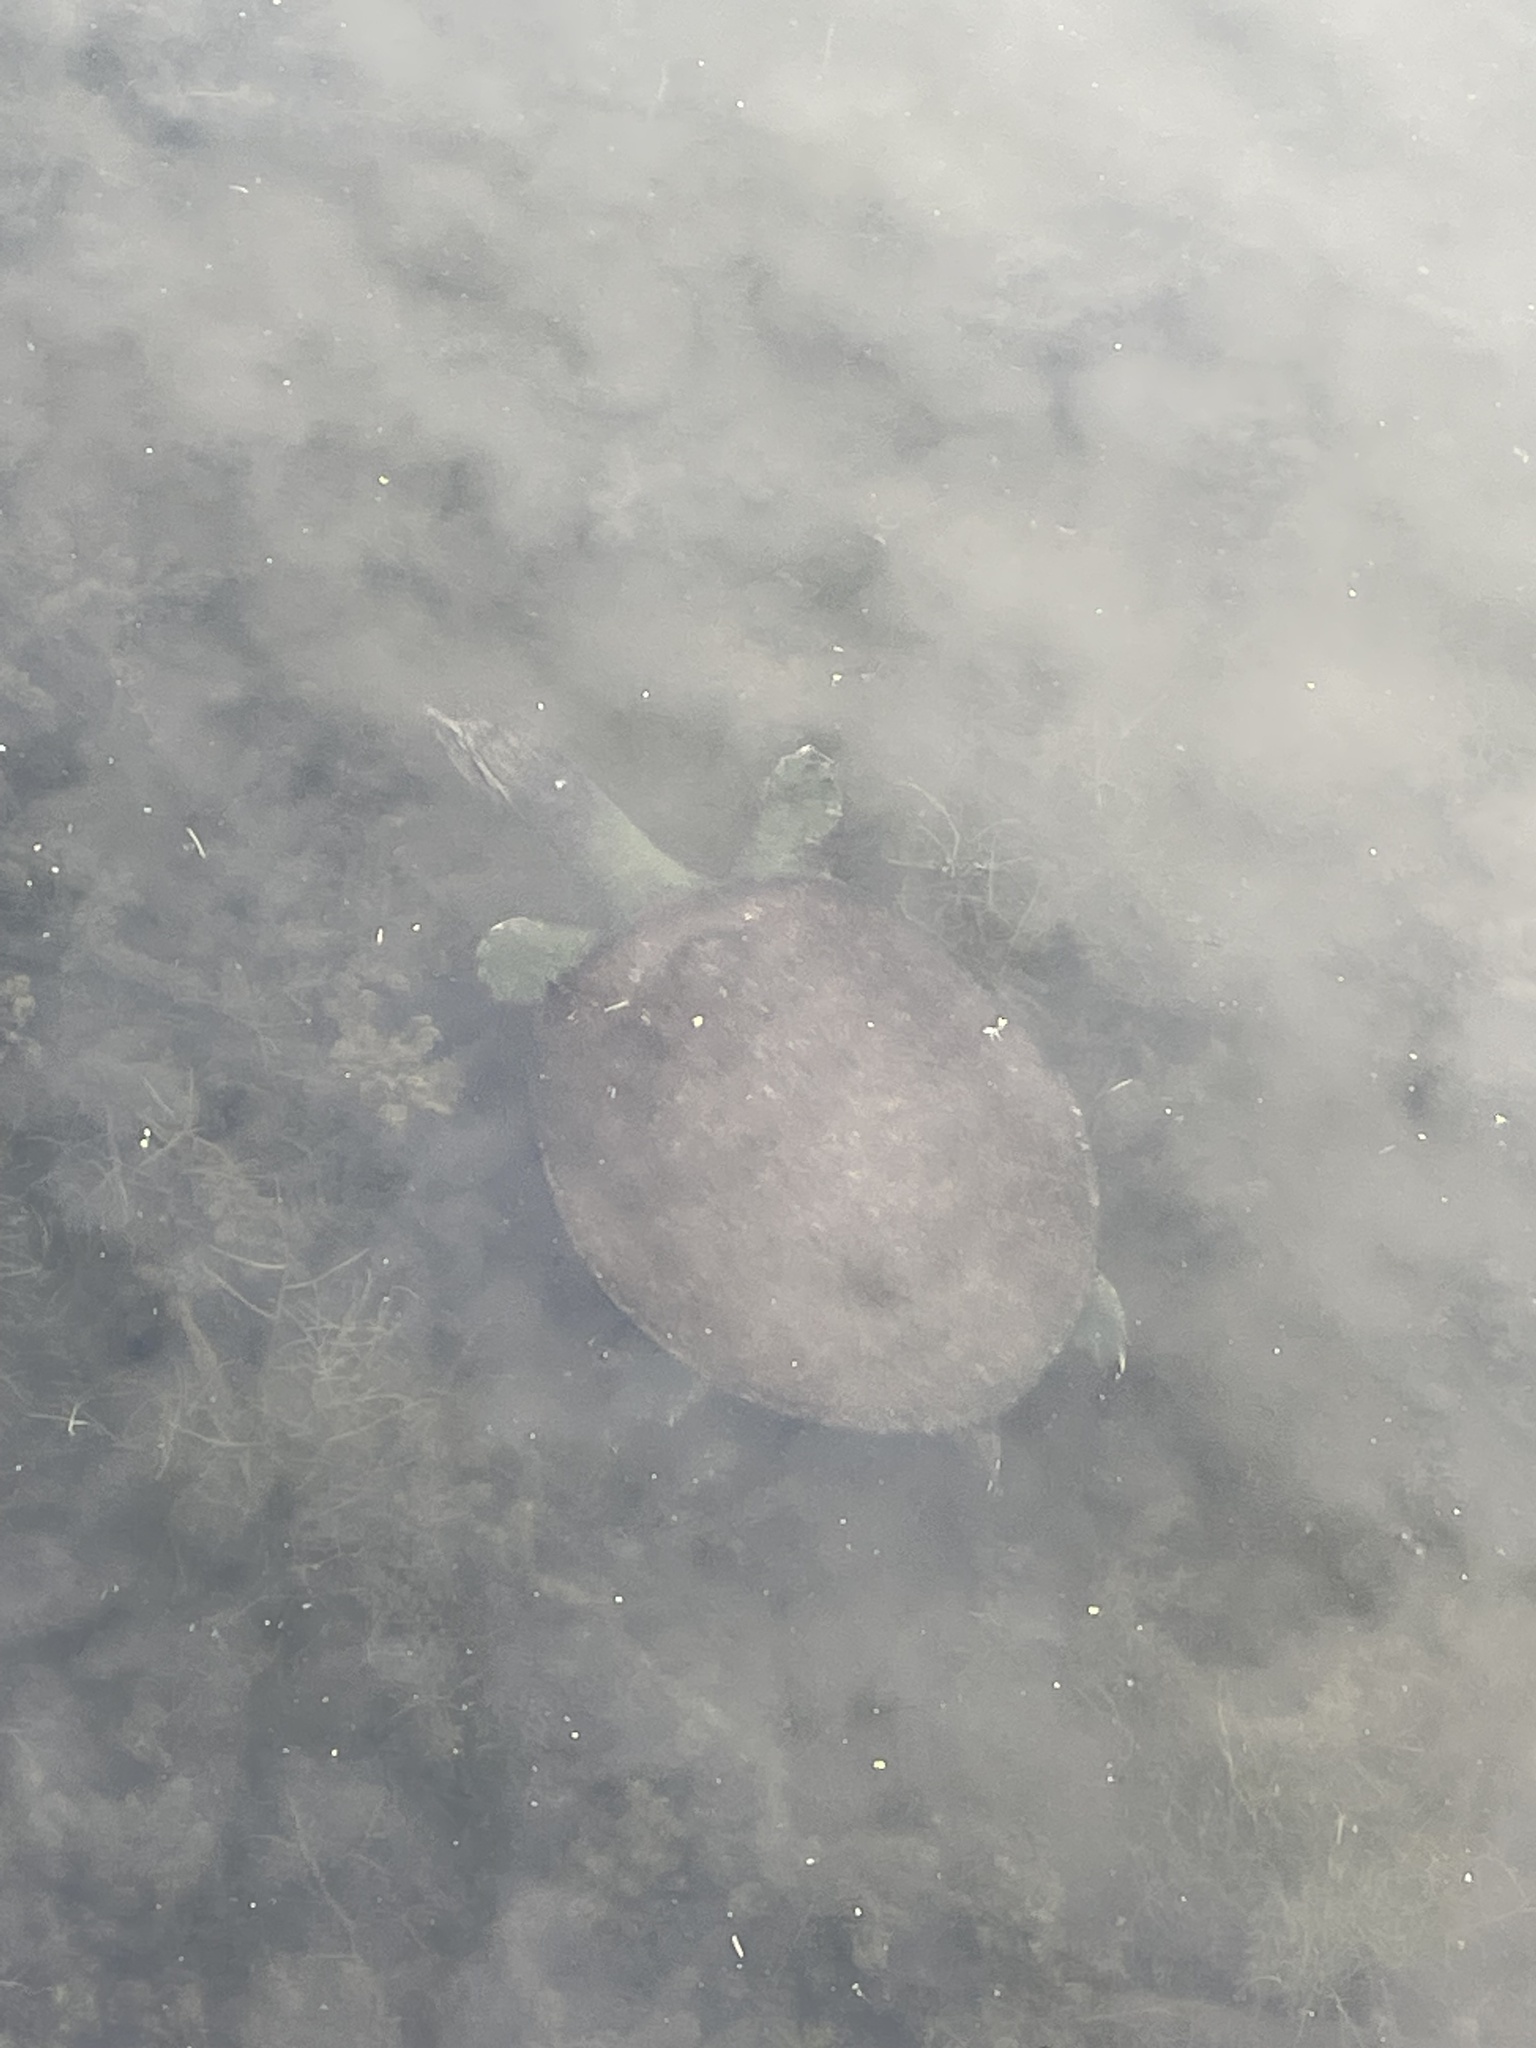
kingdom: Animalia
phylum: Chordata
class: Testudines
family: Trionychidae
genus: Apalone
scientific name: Apalone spinifera
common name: Spiny softshell turtle
